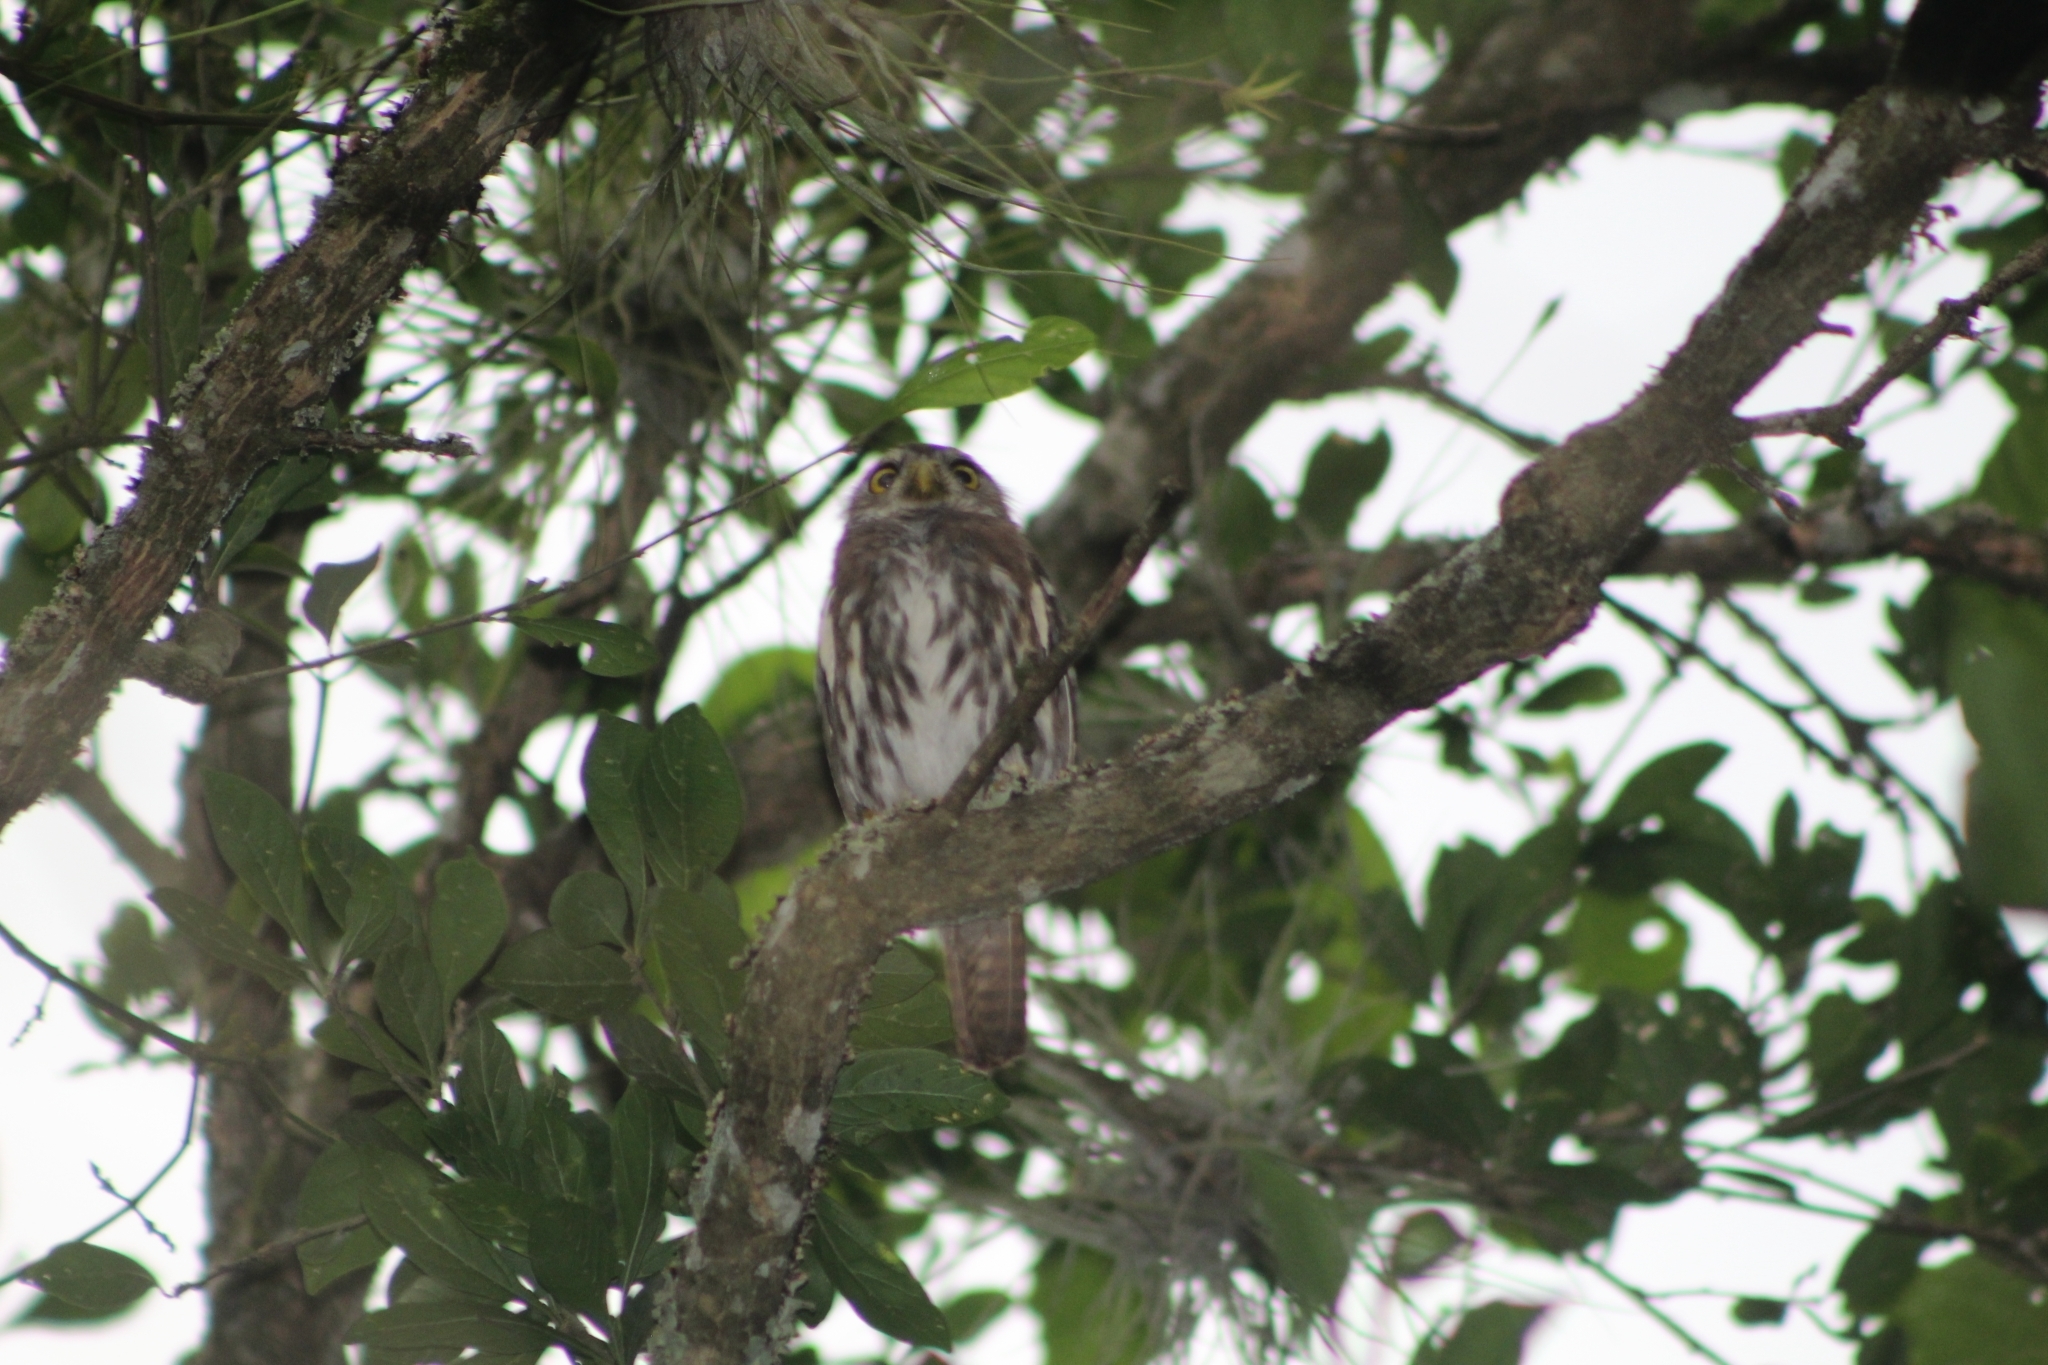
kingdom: Animalia
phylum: Chordata
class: Aves
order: Strigiformes
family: Strigidae
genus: Glaucidium
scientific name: Glaucidium brasilianum
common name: Ferruginous pygmy-owl
